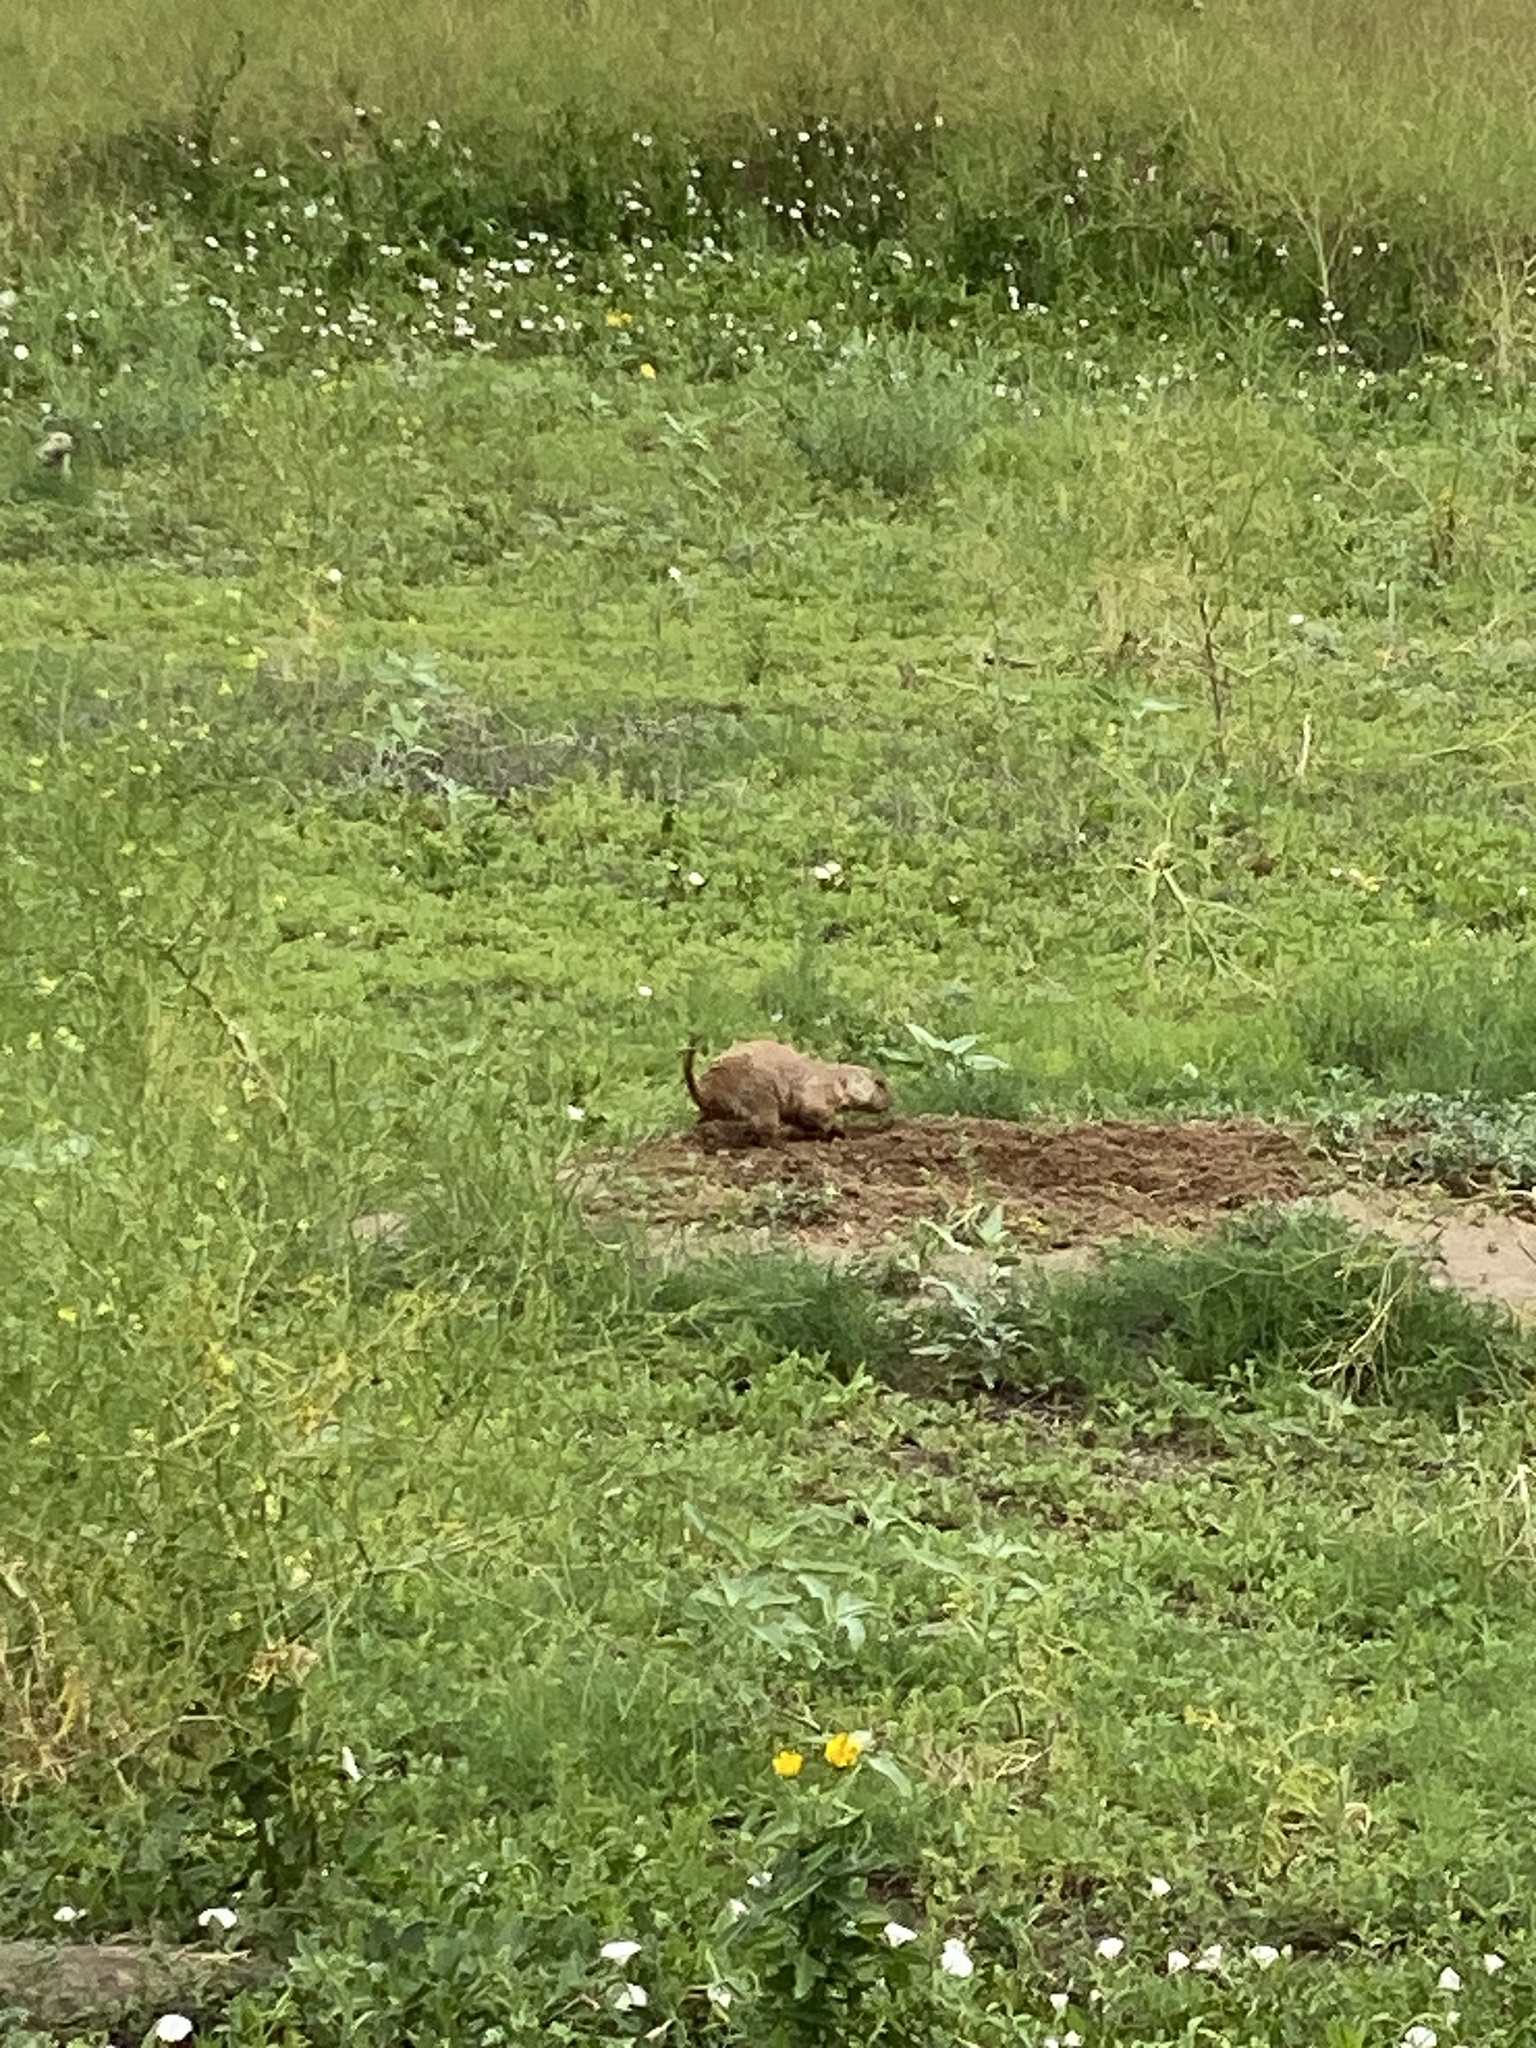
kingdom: Animalia
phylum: Chordata
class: Mammalia
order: Rodentia
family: Sciuridae
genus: Cynomys
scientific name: Cynomys ludovicianus
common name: Black-tailed prairie dog
